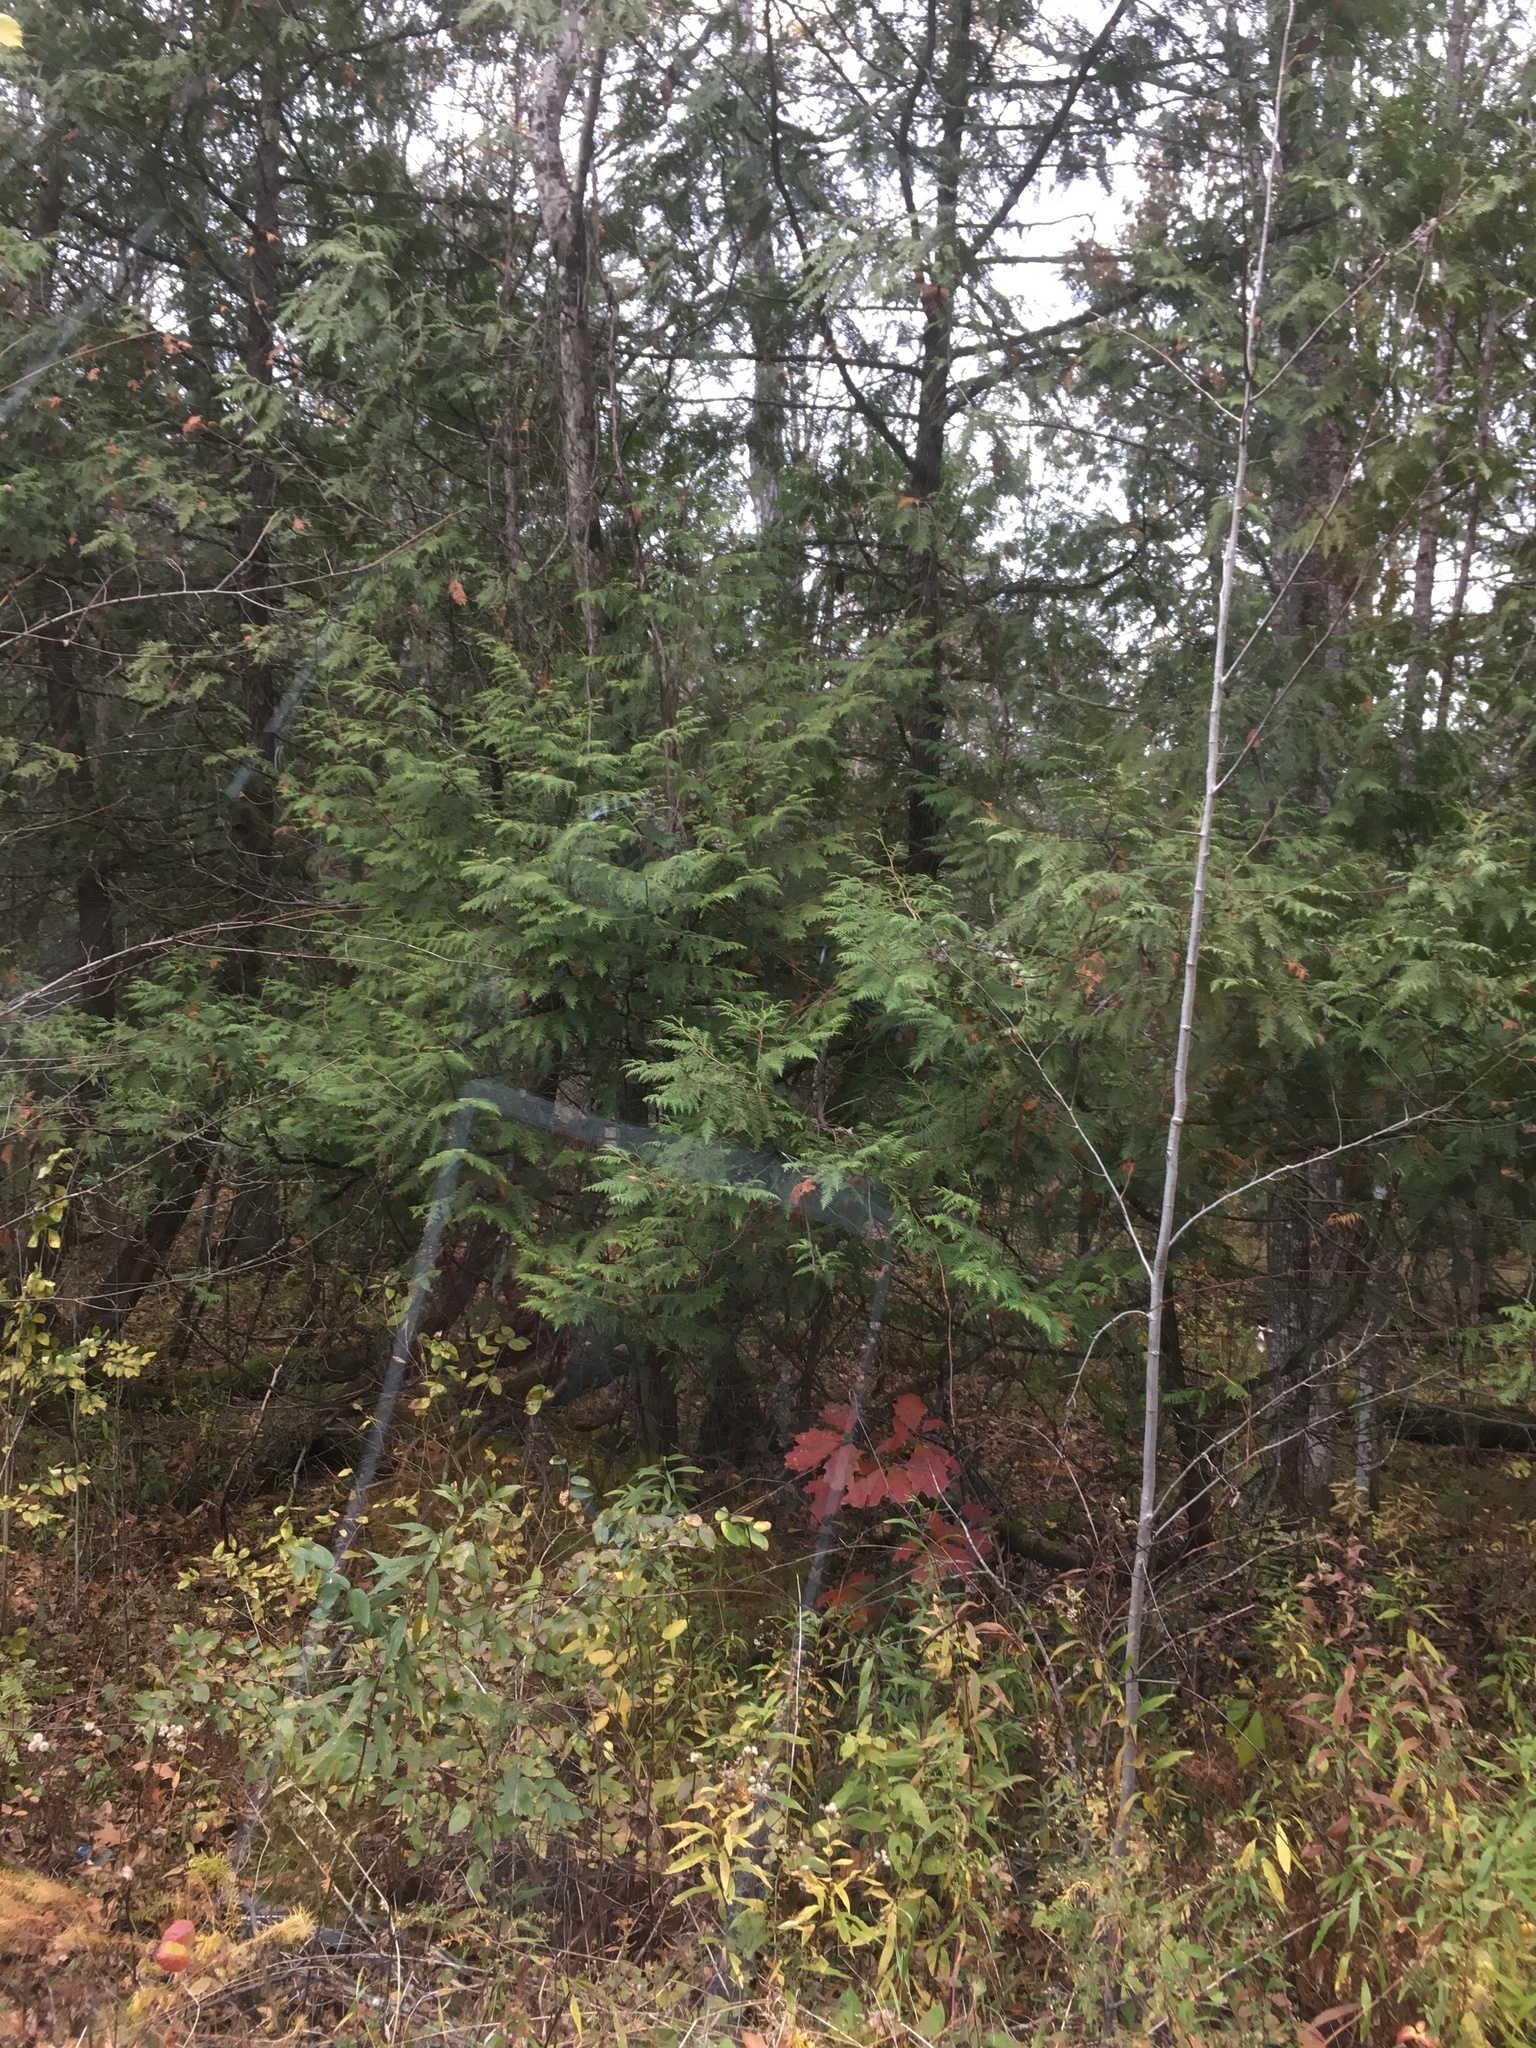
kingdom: Plantae
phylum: Tracheophyta
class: Pinopsida
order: Pinales
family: Cupressaceae
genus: Thuja
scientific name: Thuja occidentalis
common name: Northern white-cedar
